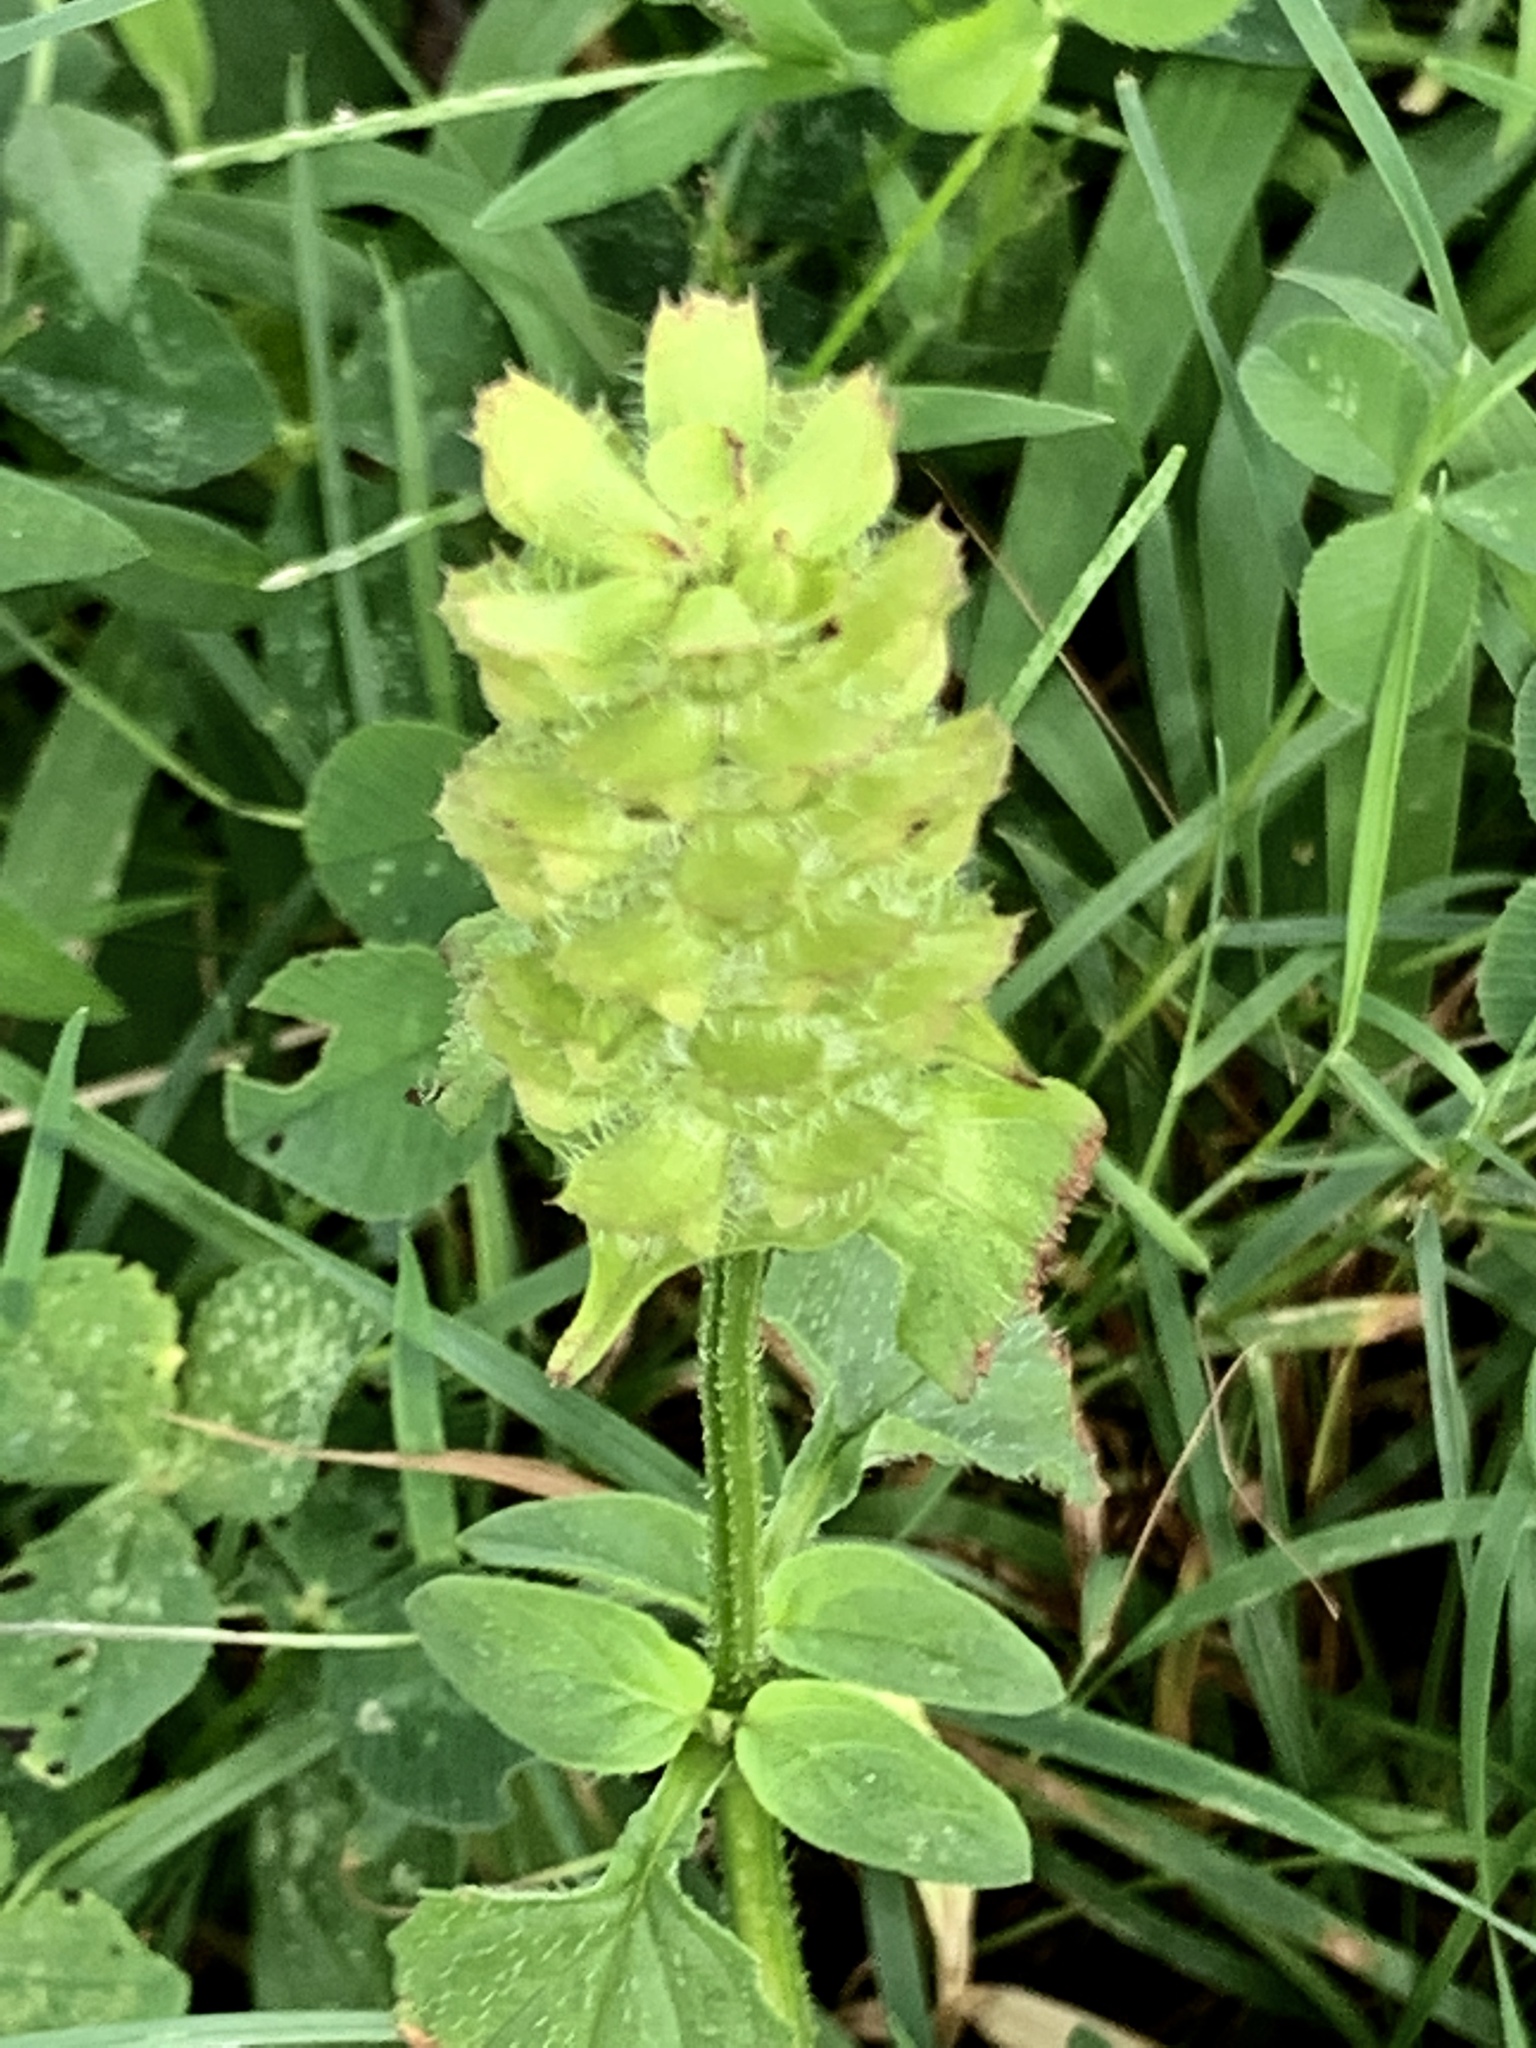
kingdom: Plantae
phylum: Tracheophyta
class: Magnoliopsida
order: Lamiales
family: Lamiaceae
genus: Prunella
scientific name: Prunella vulgaris
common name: Heal-all
